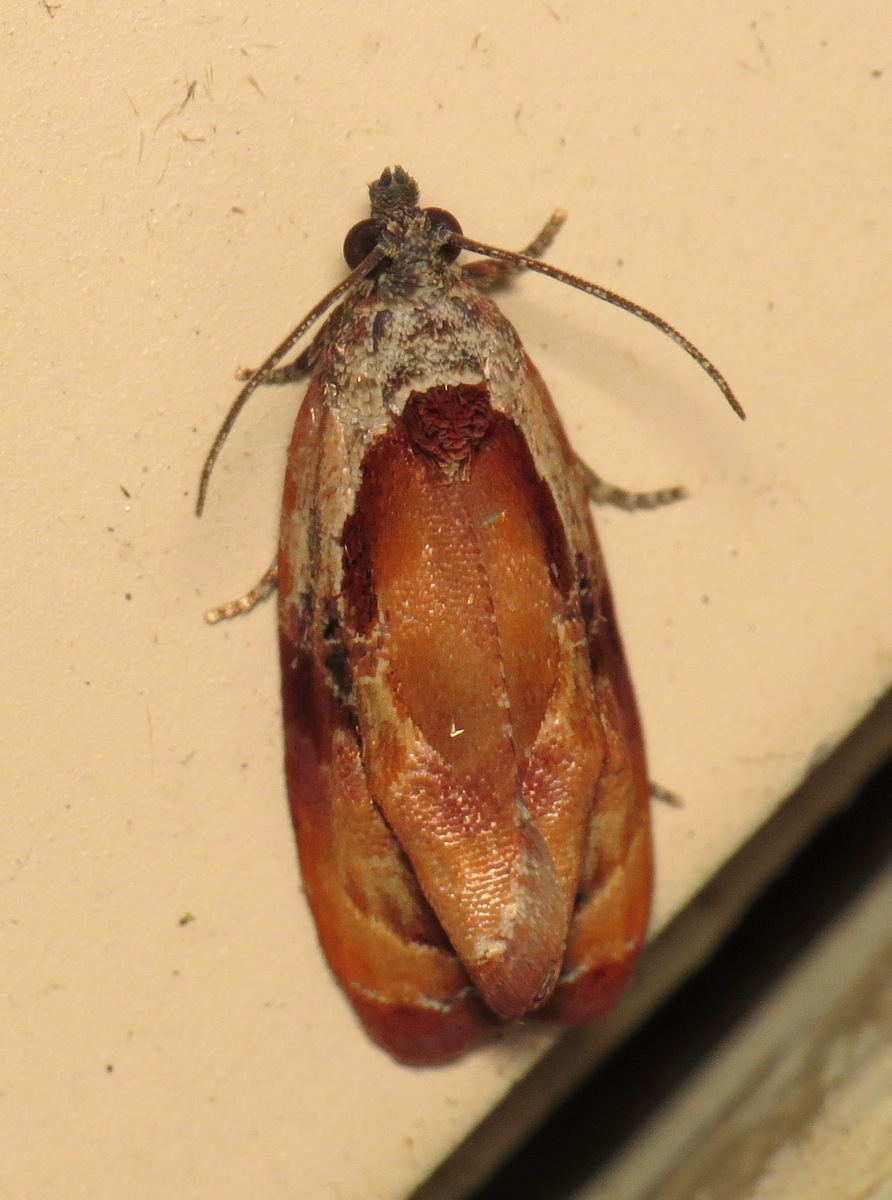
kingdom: Animalia
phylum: Arthropoda
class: Insecta
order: Lepidoptera
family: Tortricidae
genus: Zomaria
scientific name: Zomaria interruptolineana
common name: Broken-lined zomaria moth
